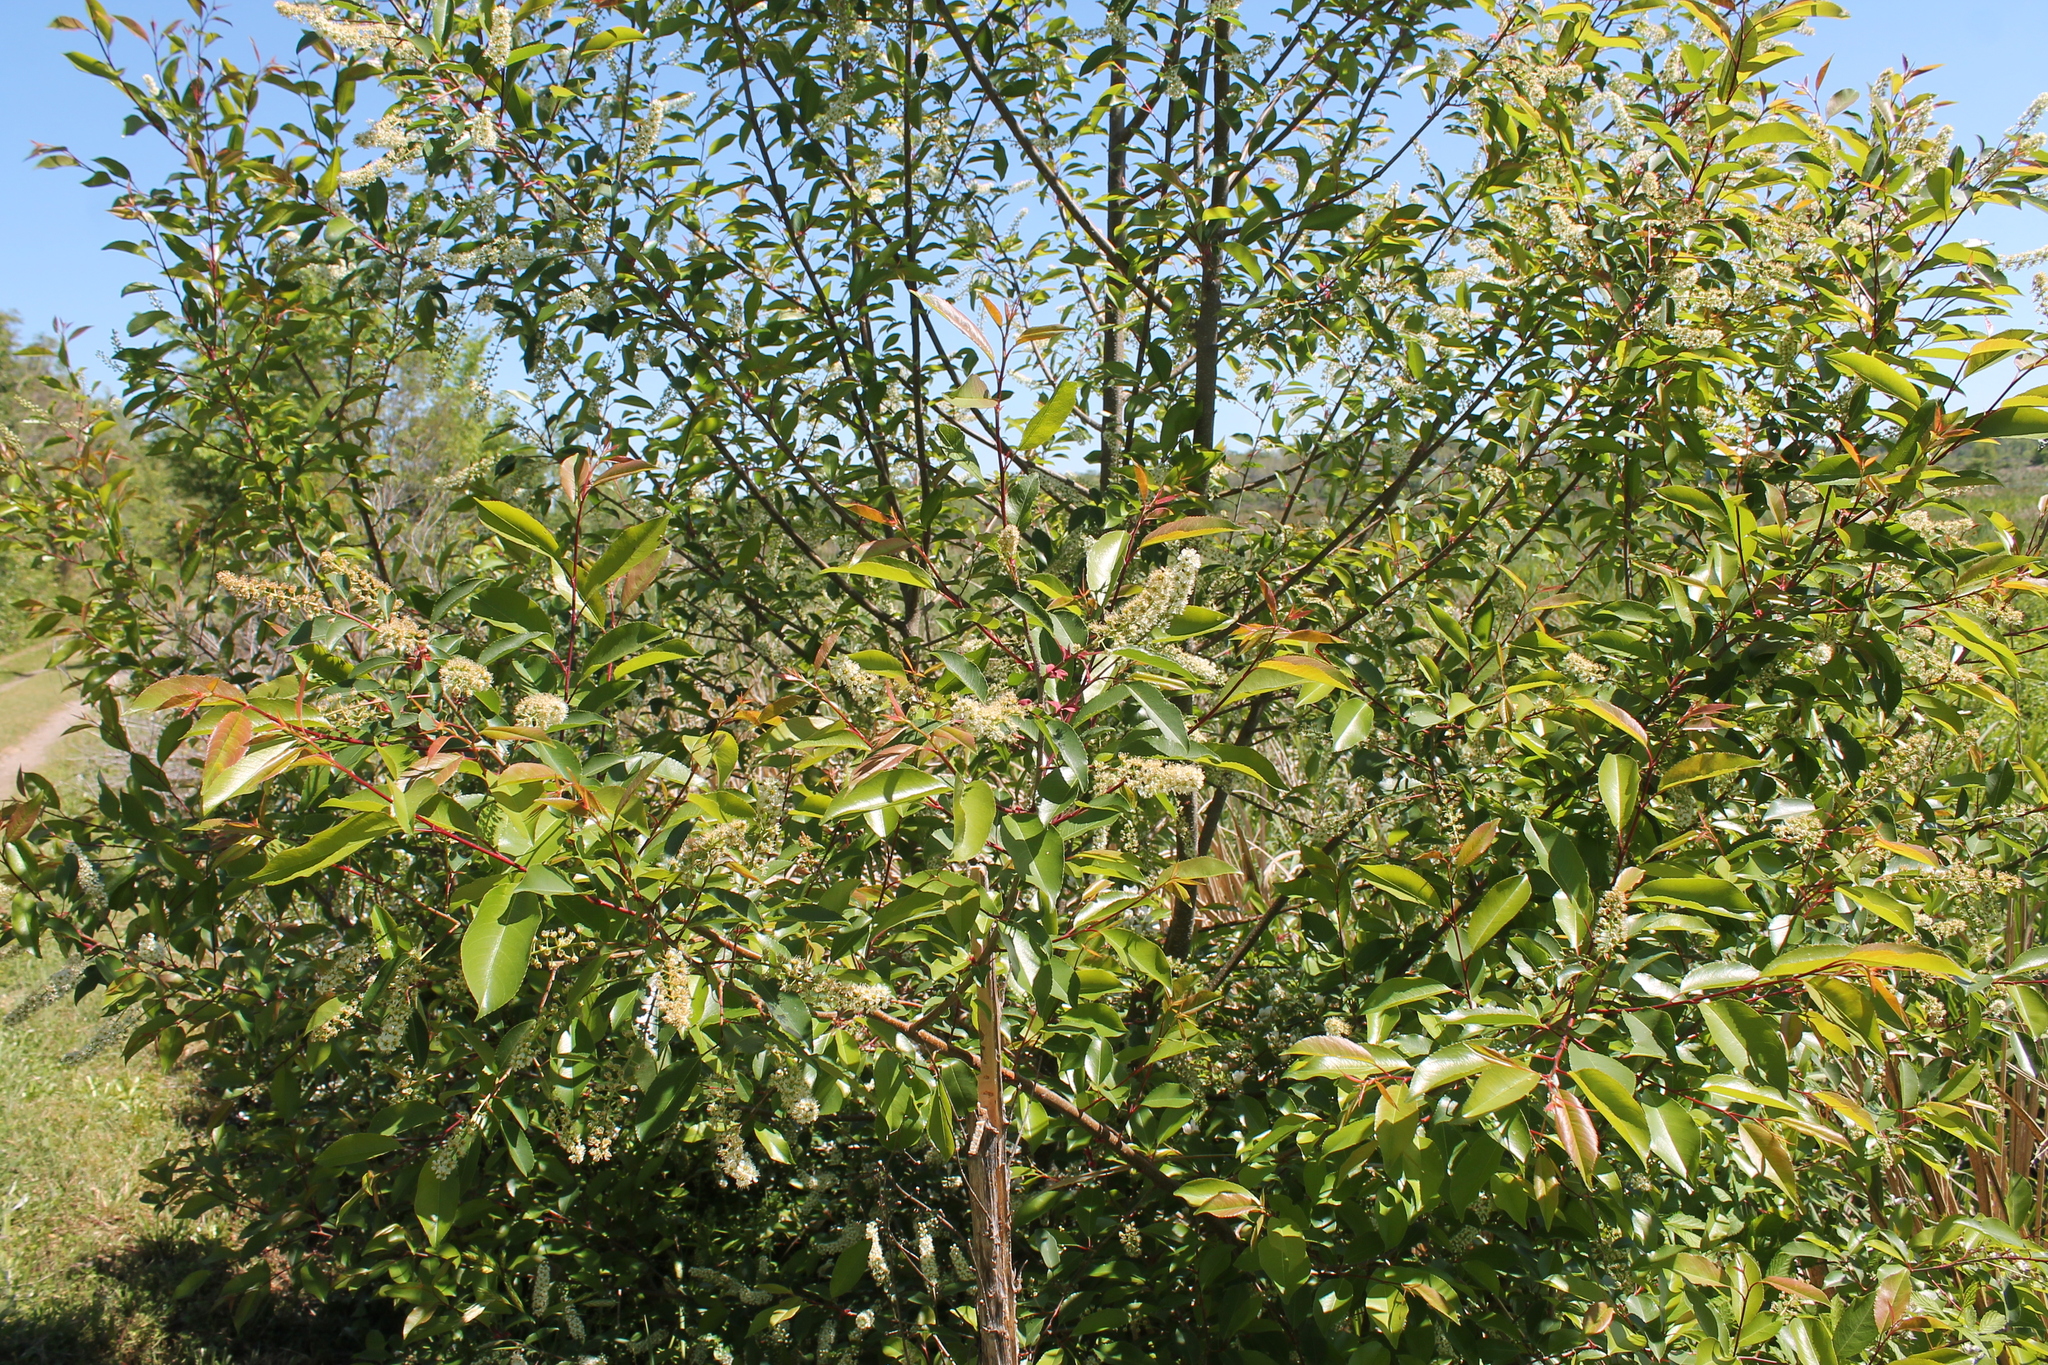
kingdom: Plantae
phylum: Tracheophyta
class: Magnoliopsida
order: Rosales
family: Rosaceae
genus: Prunus
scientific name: Prunus serotina
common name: Black cherry
